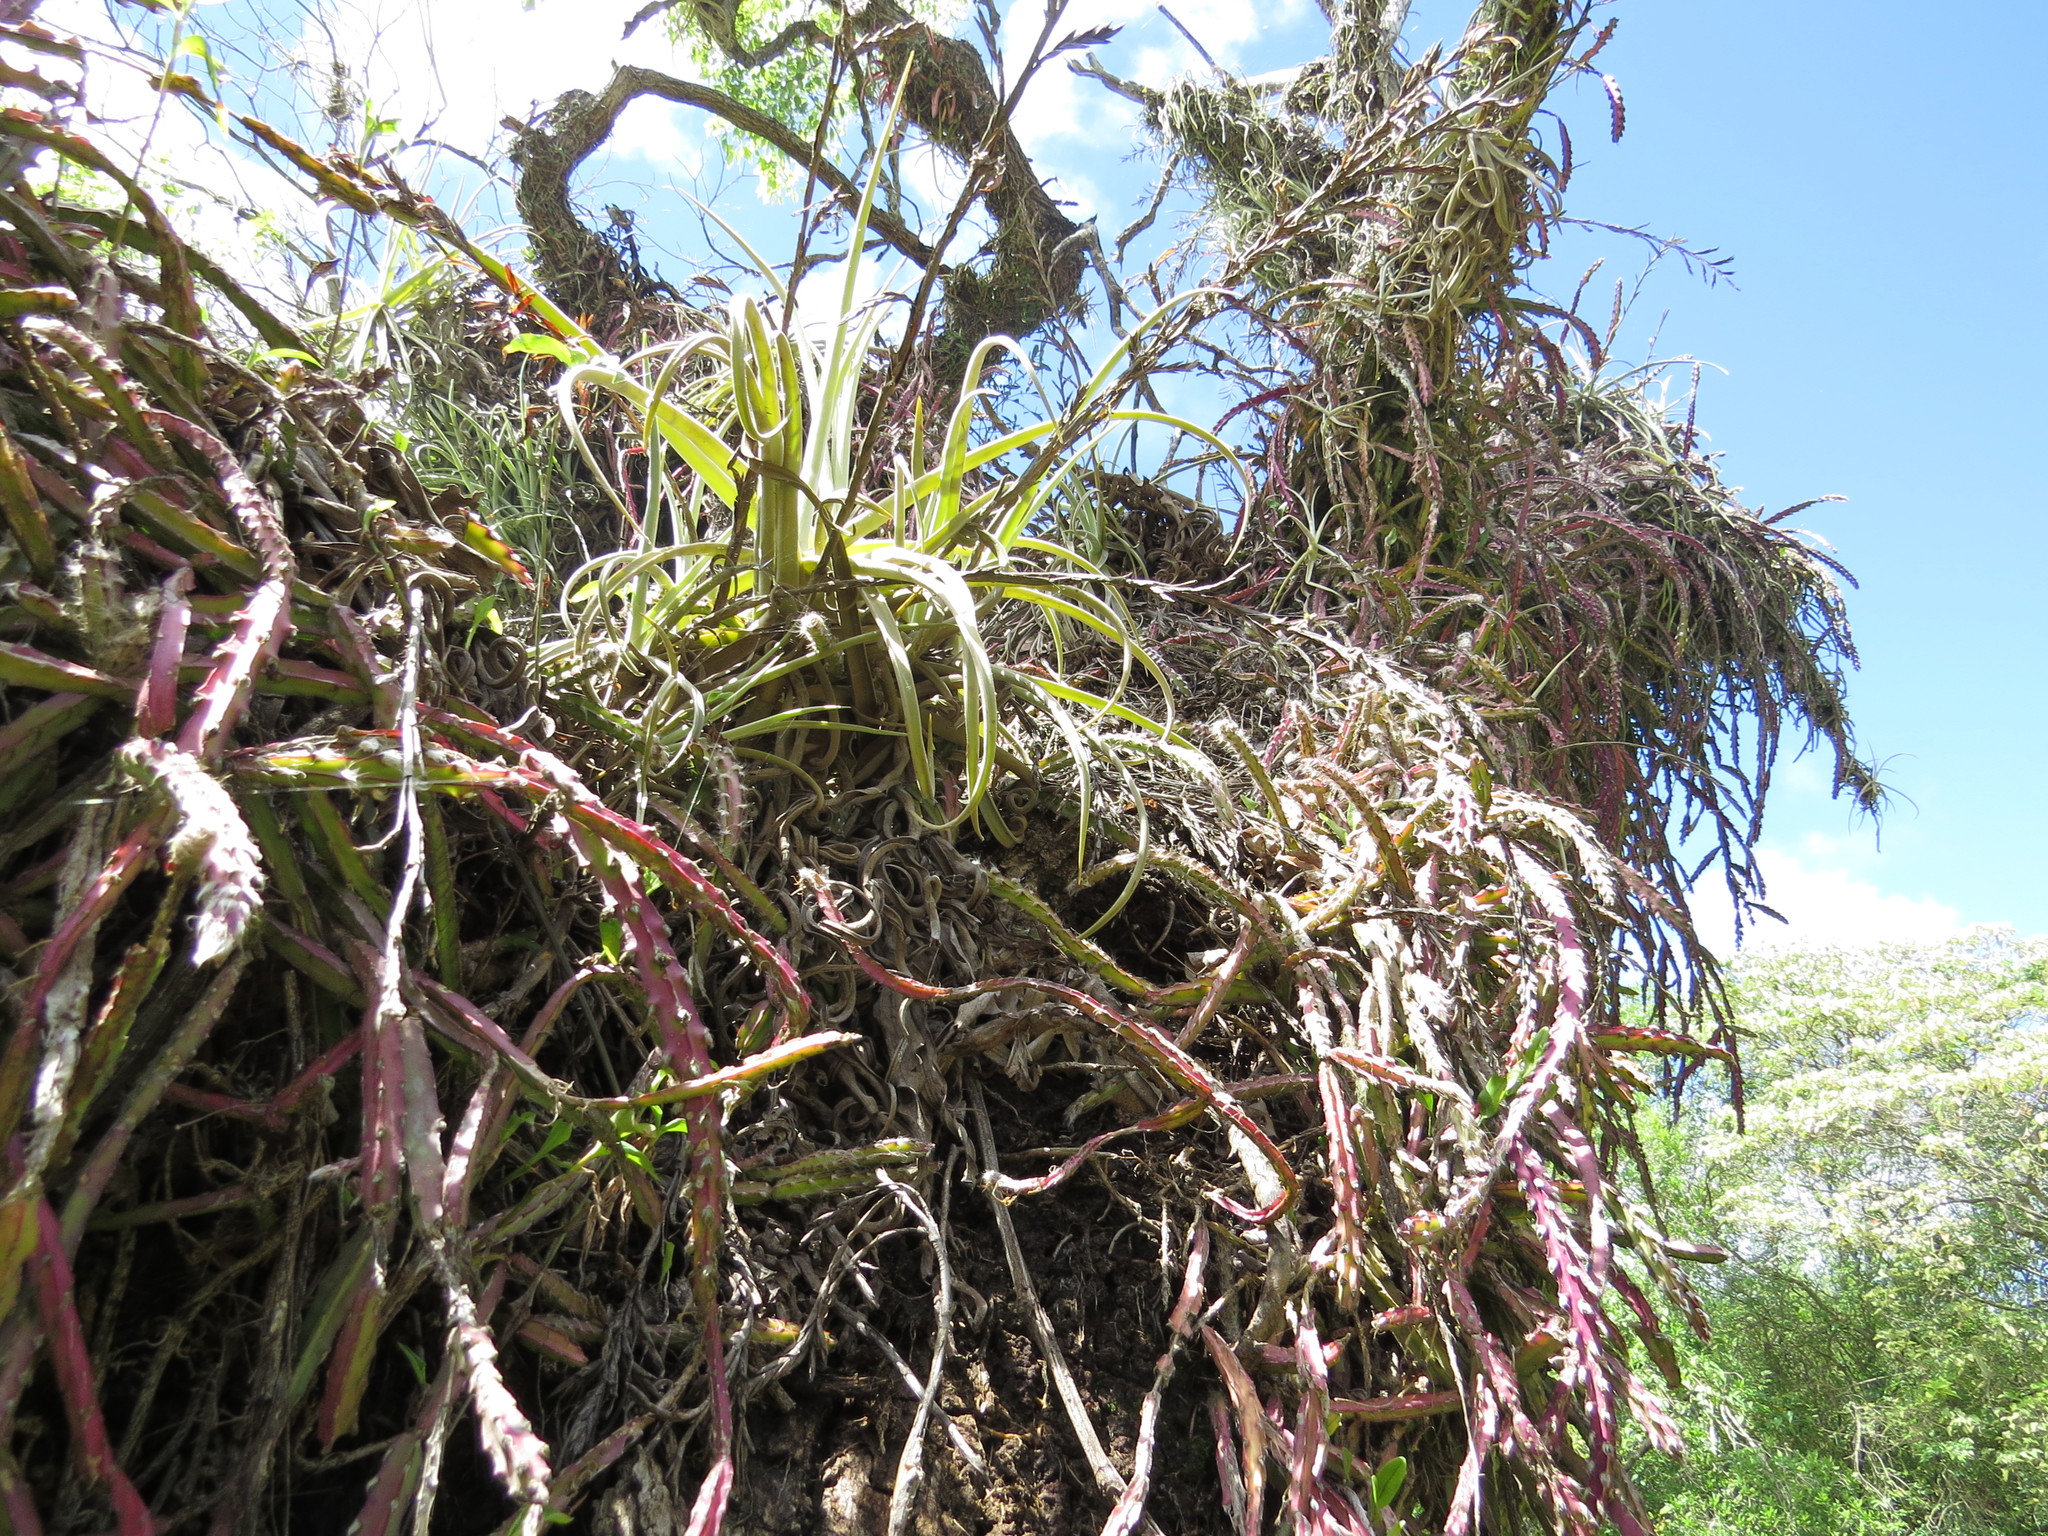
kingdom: Plantae
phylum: Tracheophyta
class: Liliopsida
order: Poales
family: Bromeliaceae
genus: Tillandsia
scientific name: Tillandsia duratii
